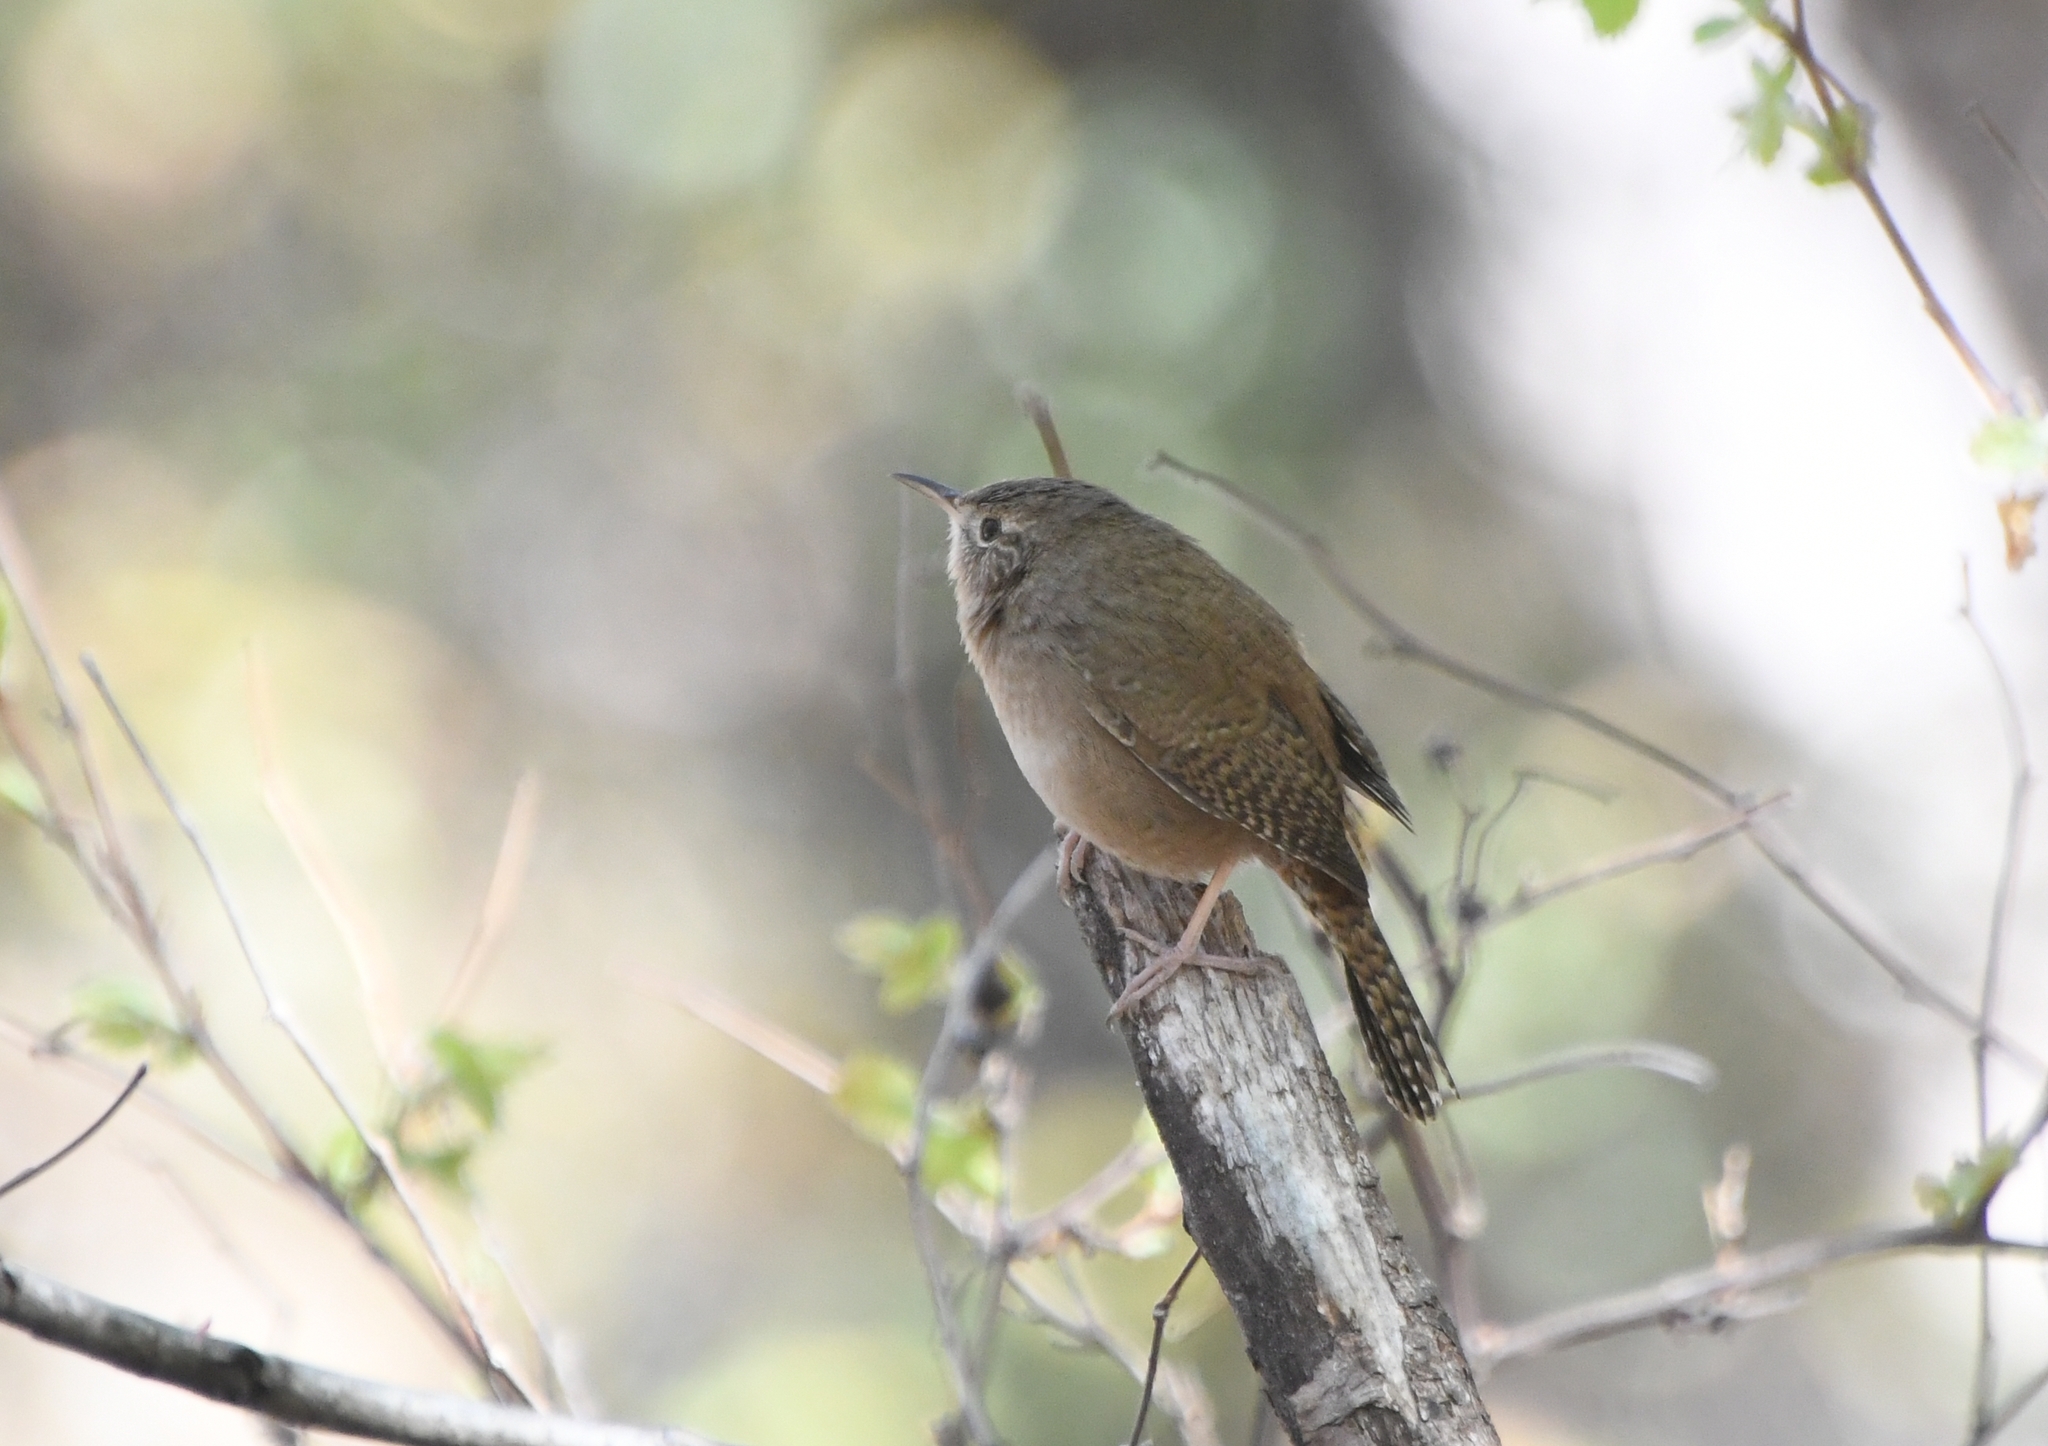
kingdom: Animalia
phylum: Chordata
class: Aves
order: Passeriformes
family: Troglodytidae
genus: Troglodytes
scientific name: Troglodytes aedon
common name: House wren
